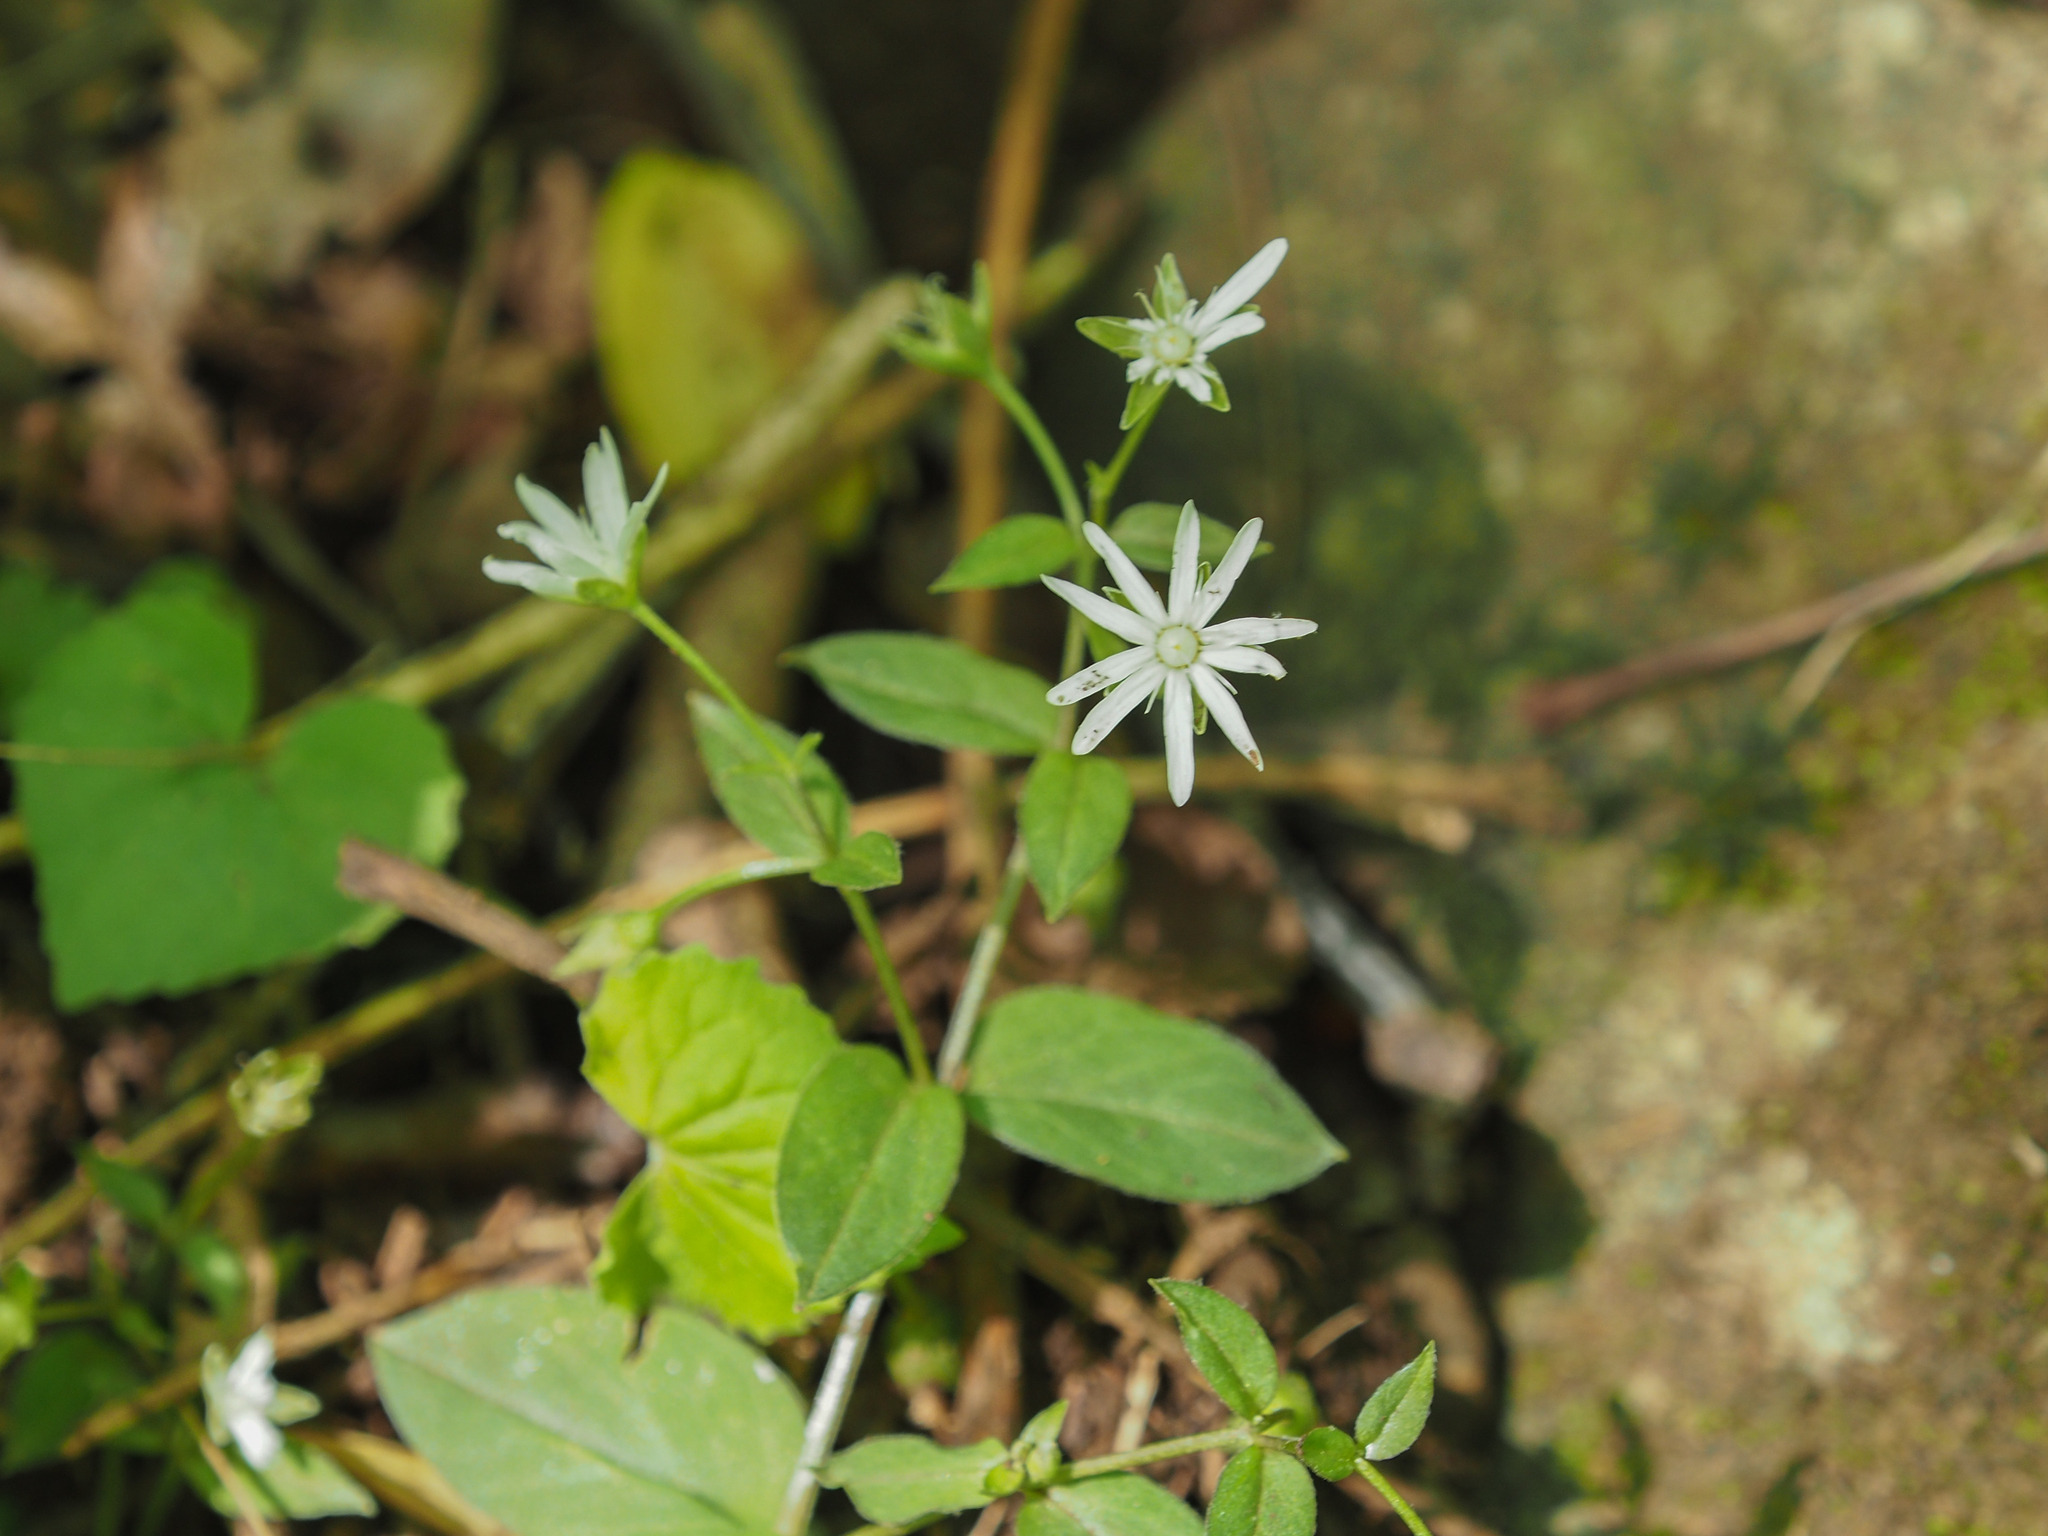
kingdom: Plantae
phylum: Tracheophyta
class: Magnoliopsida
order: Caryophyllales
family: Caryophyllaceae
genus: Stellaria
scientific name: Stellaria pubera
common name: Star chickweed
